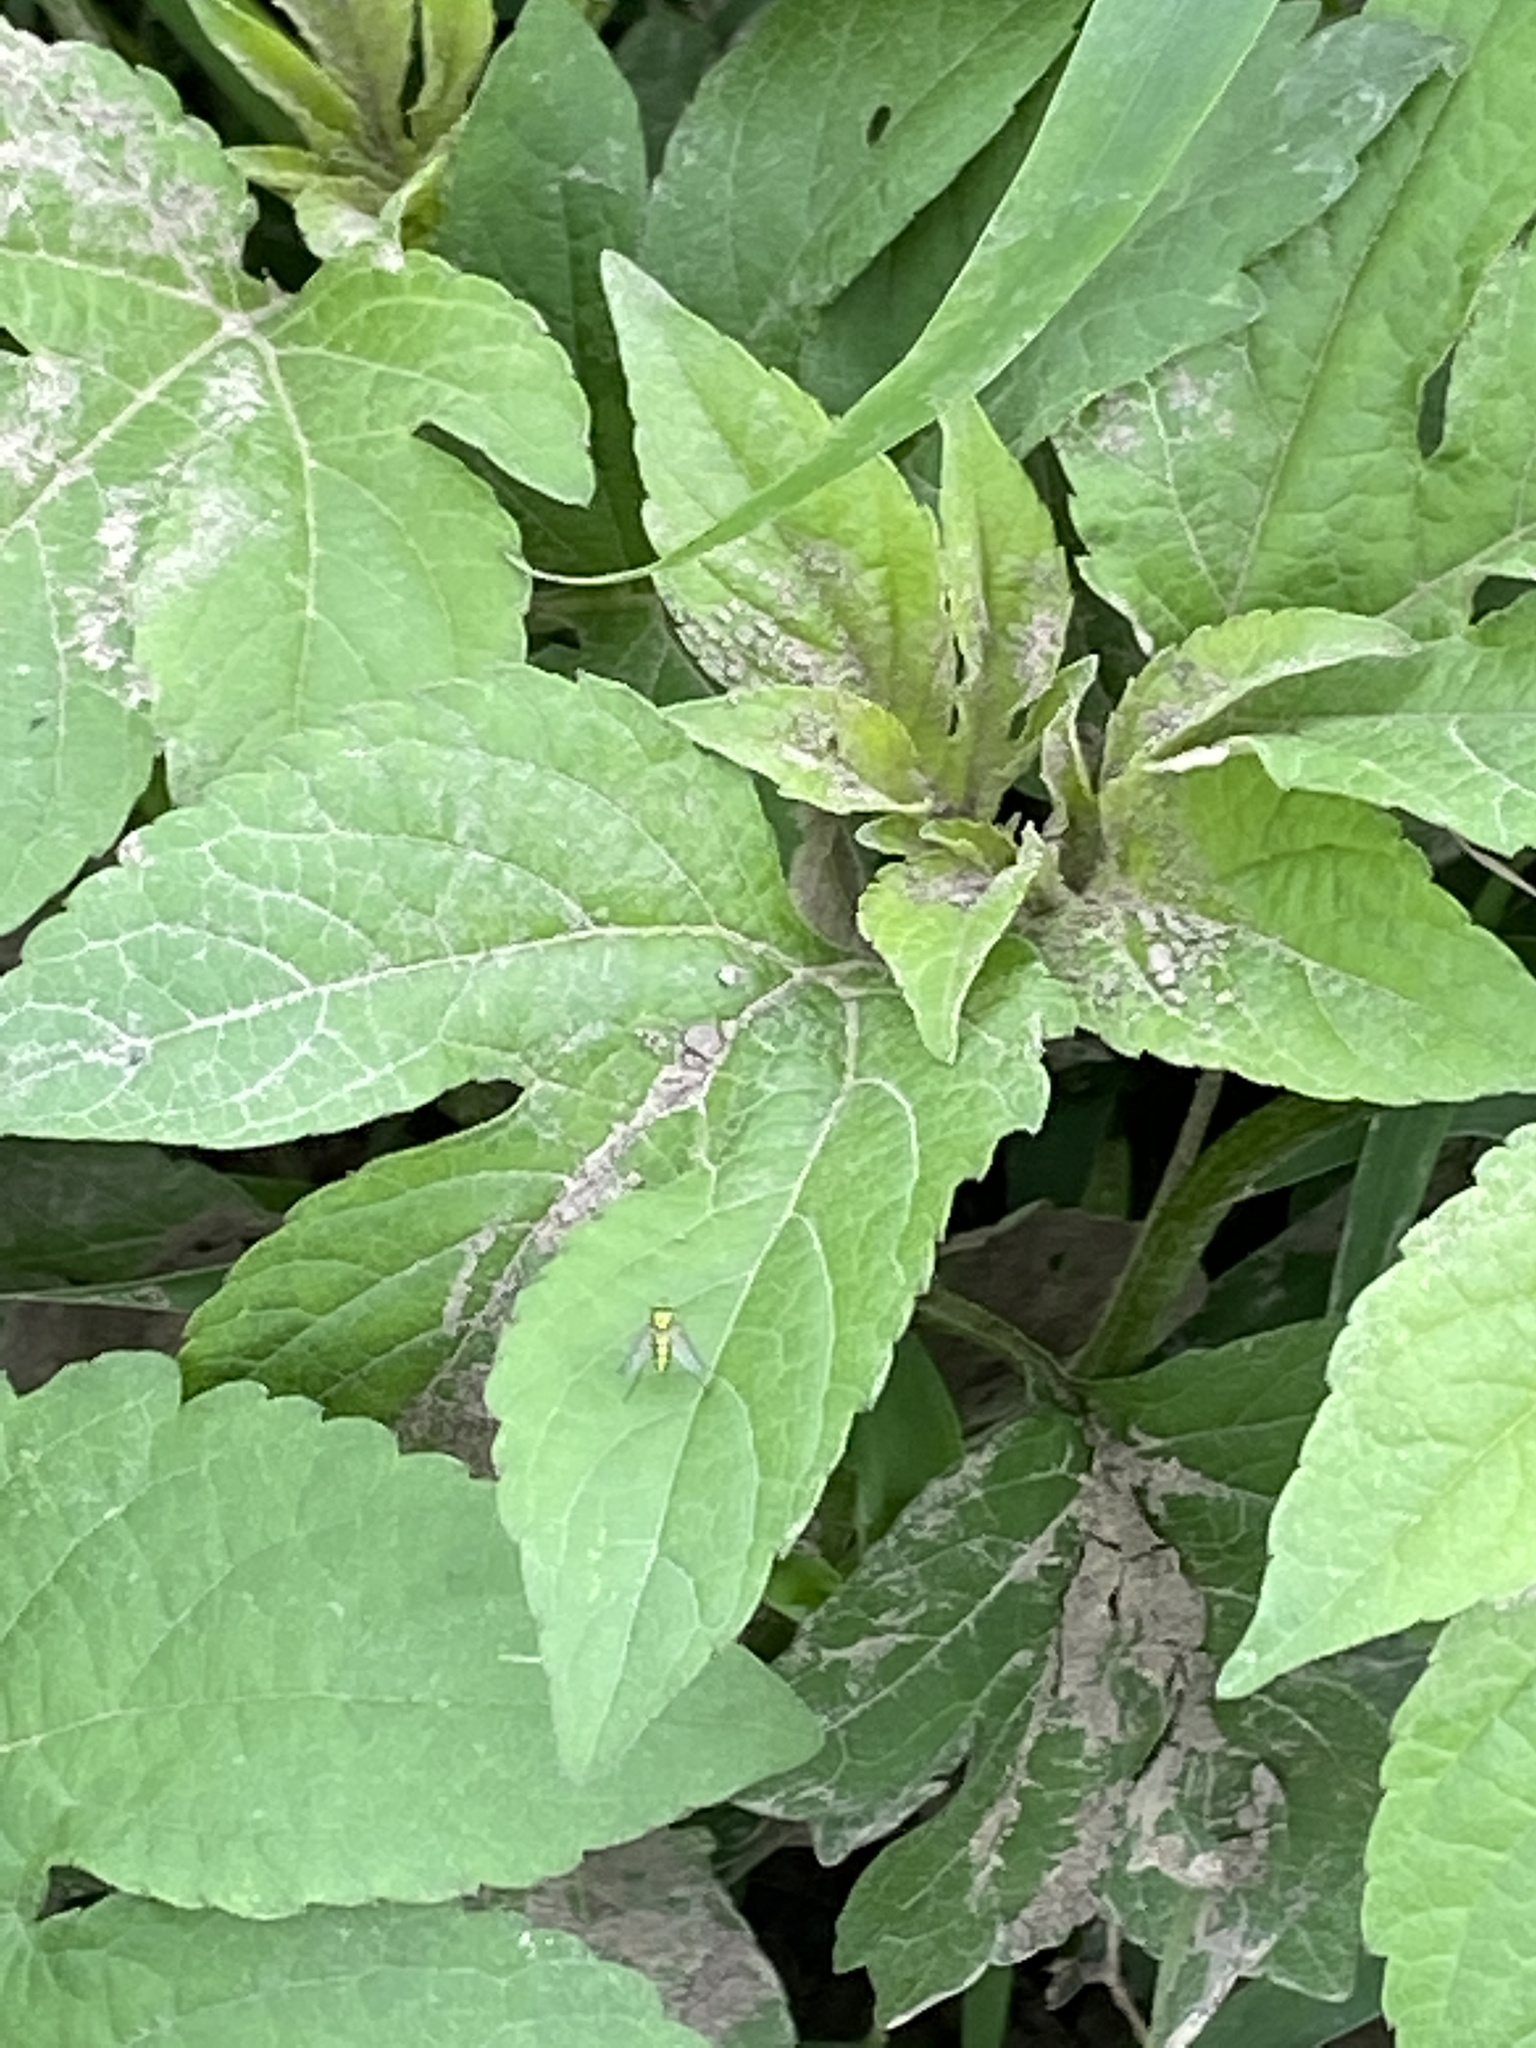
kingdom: Plantae
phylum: Tracheophyta
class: Magnoliopsida
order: Asterales
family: Asteraceae
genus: Ambrosia
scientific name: Ambrosia trifida
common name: Giant ragweed
